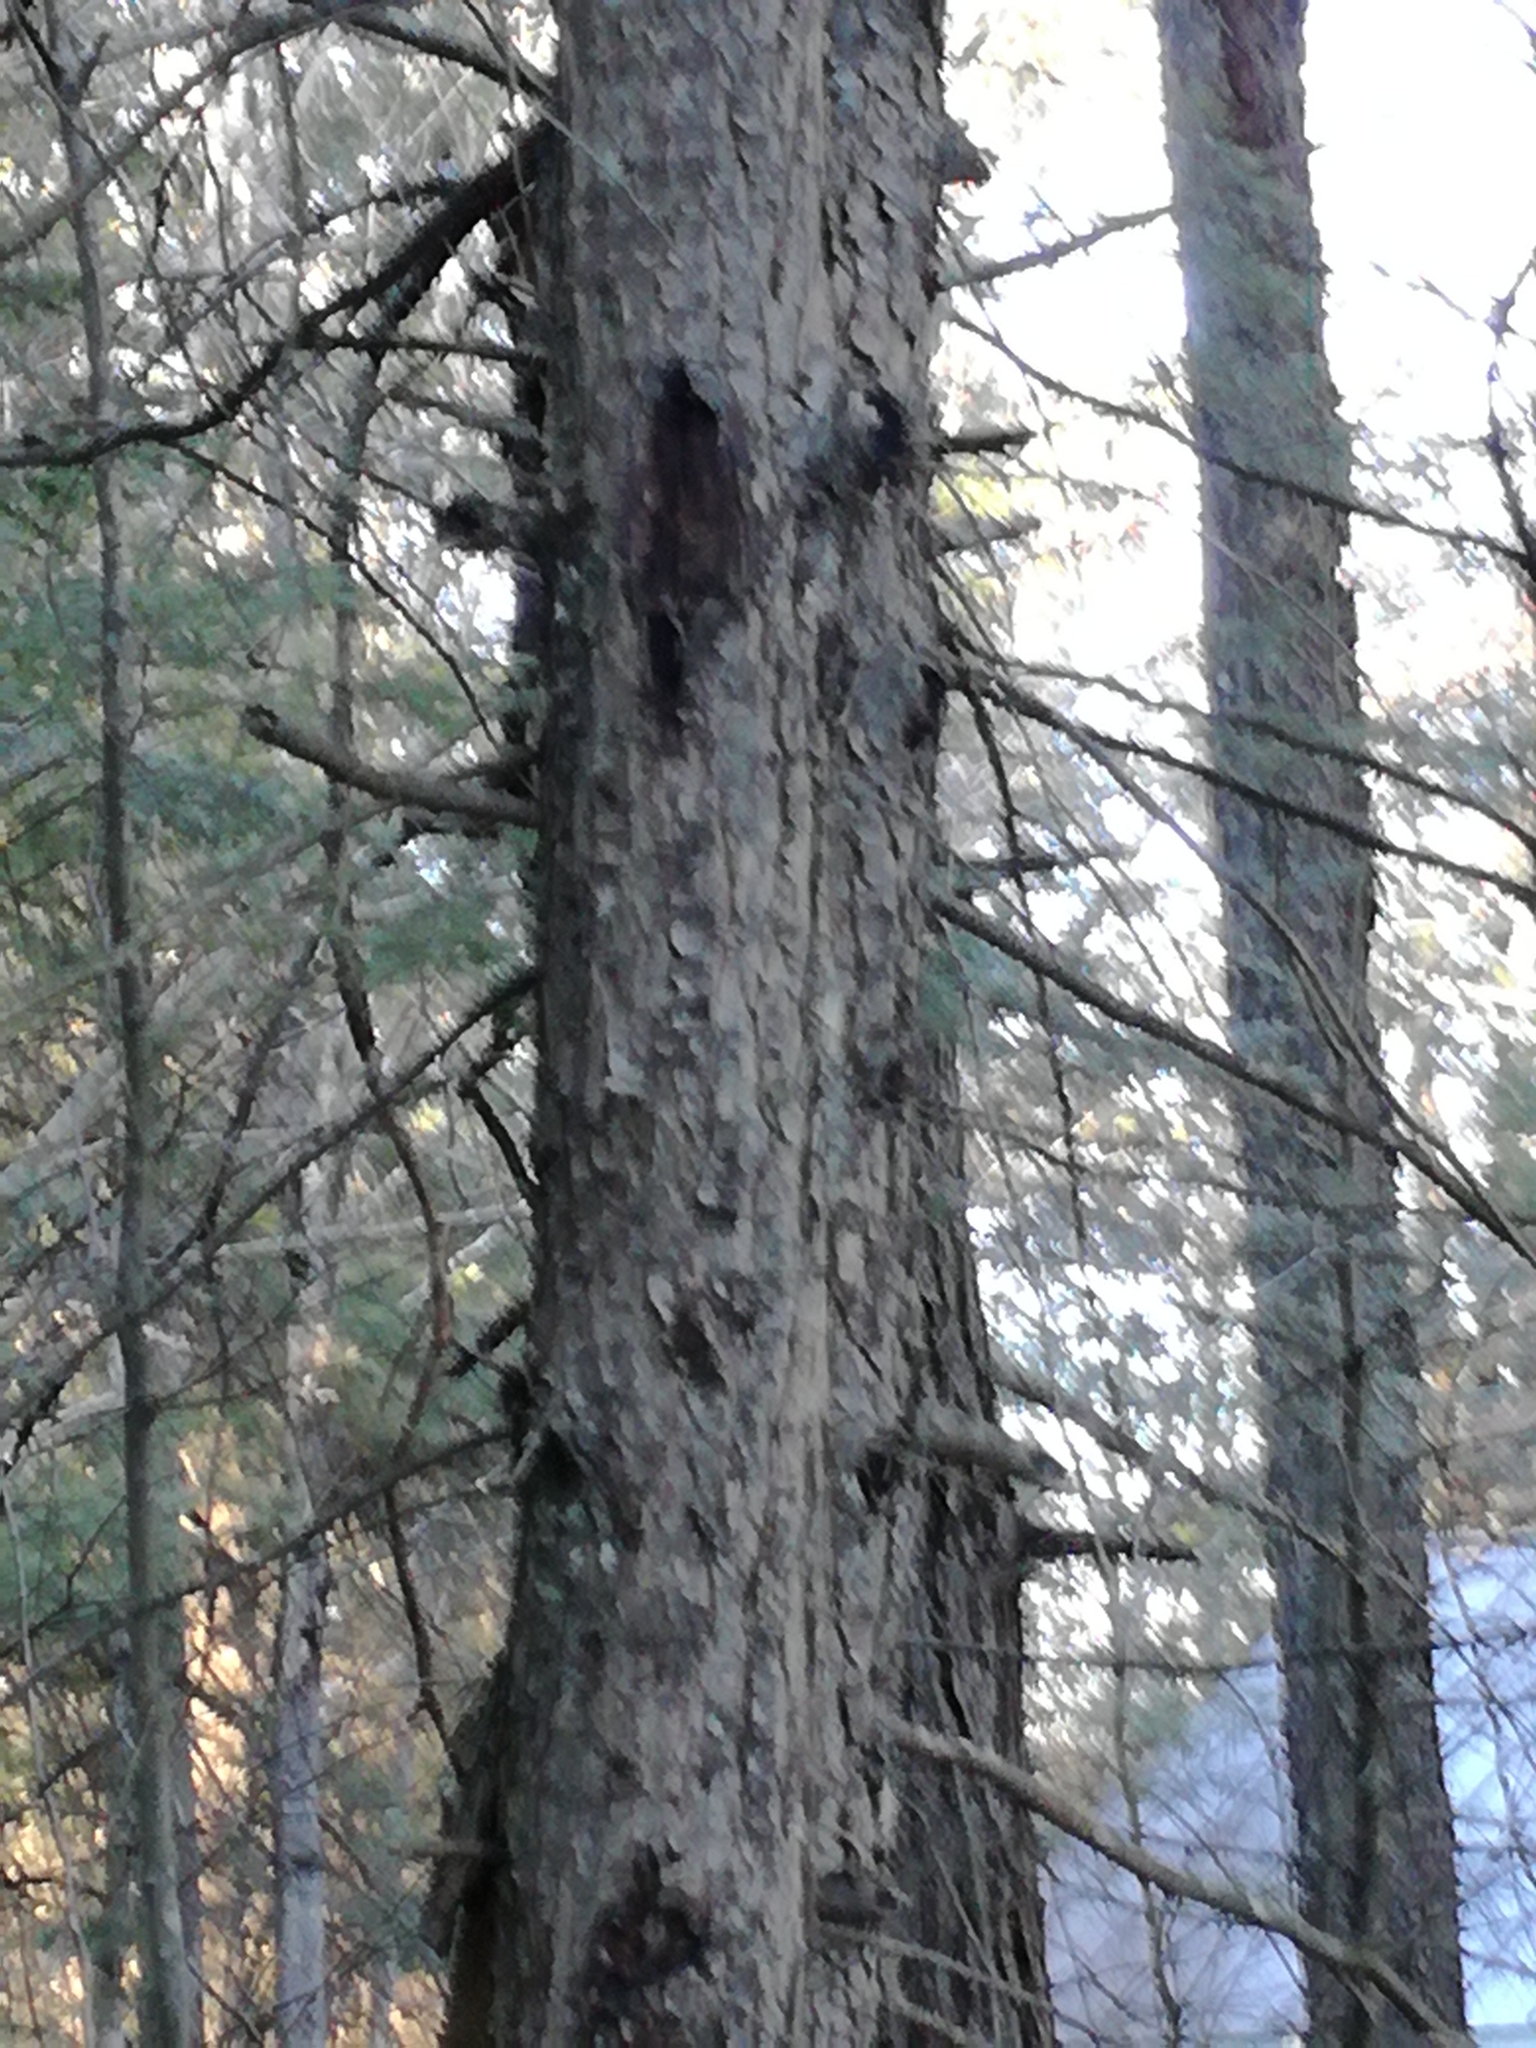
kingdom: Plantae
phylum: Tracheophyta
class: Pinopsida
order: Pinales
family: Pinaceae
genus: Tsuga
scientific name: Tsuga canadensis
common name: Eastern hemlock
